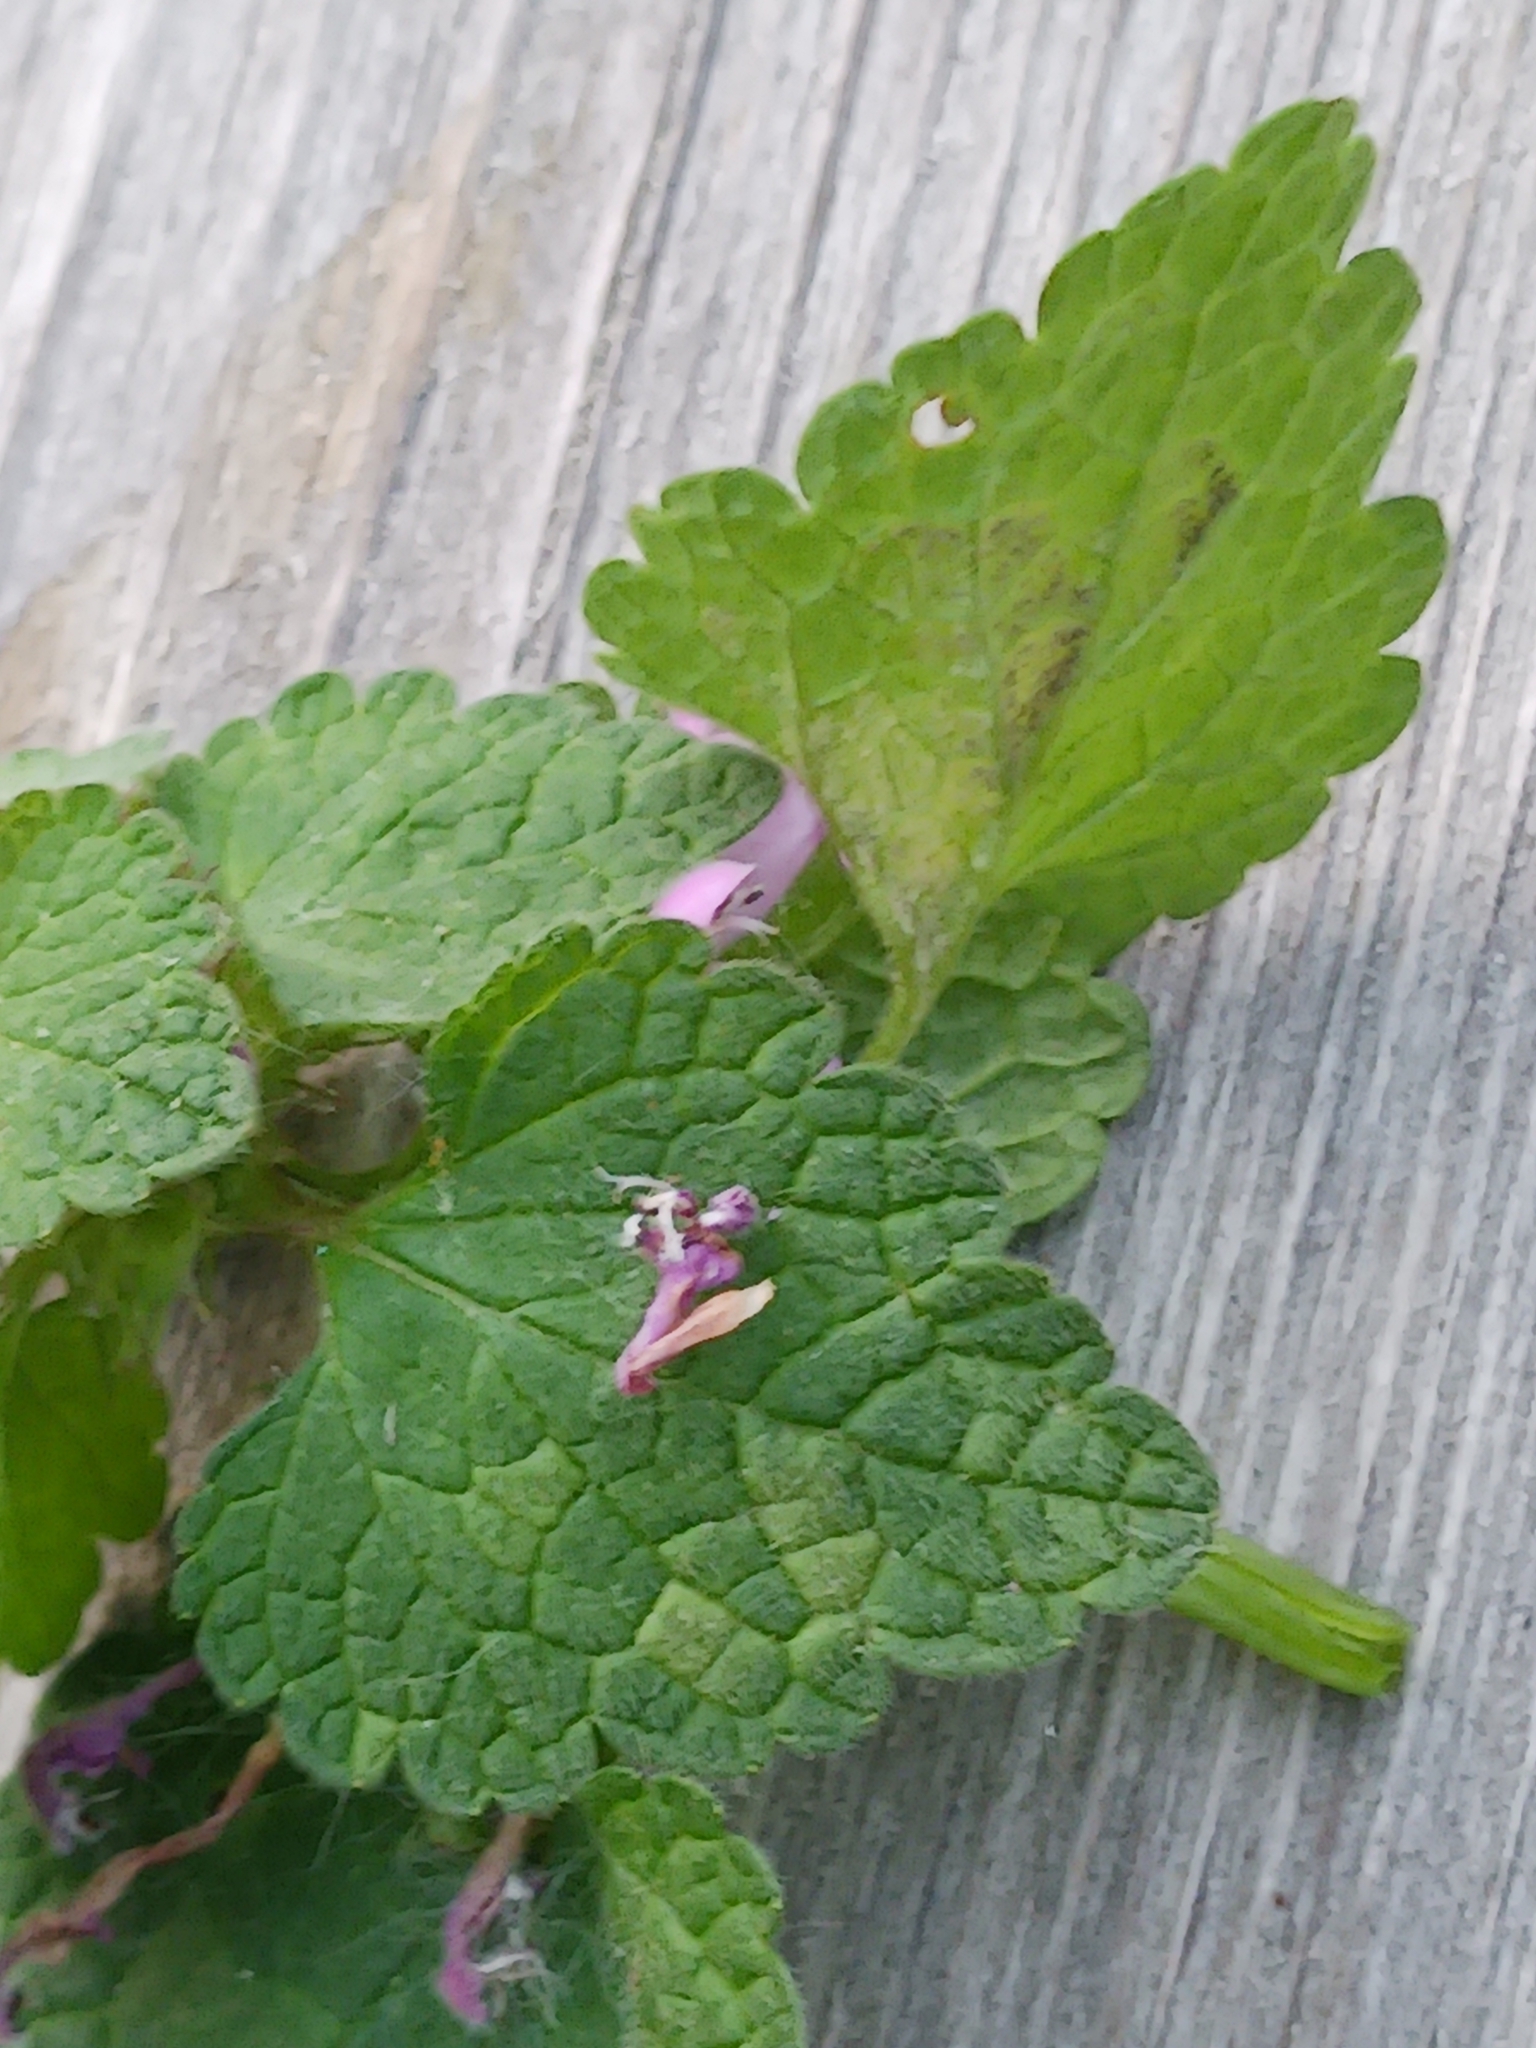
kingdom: Chromista
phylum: Oomycota
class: Peronosporea
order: Peronosporales
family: Peronosporaceae
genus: Peronospora
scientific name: Peronospora lamii
